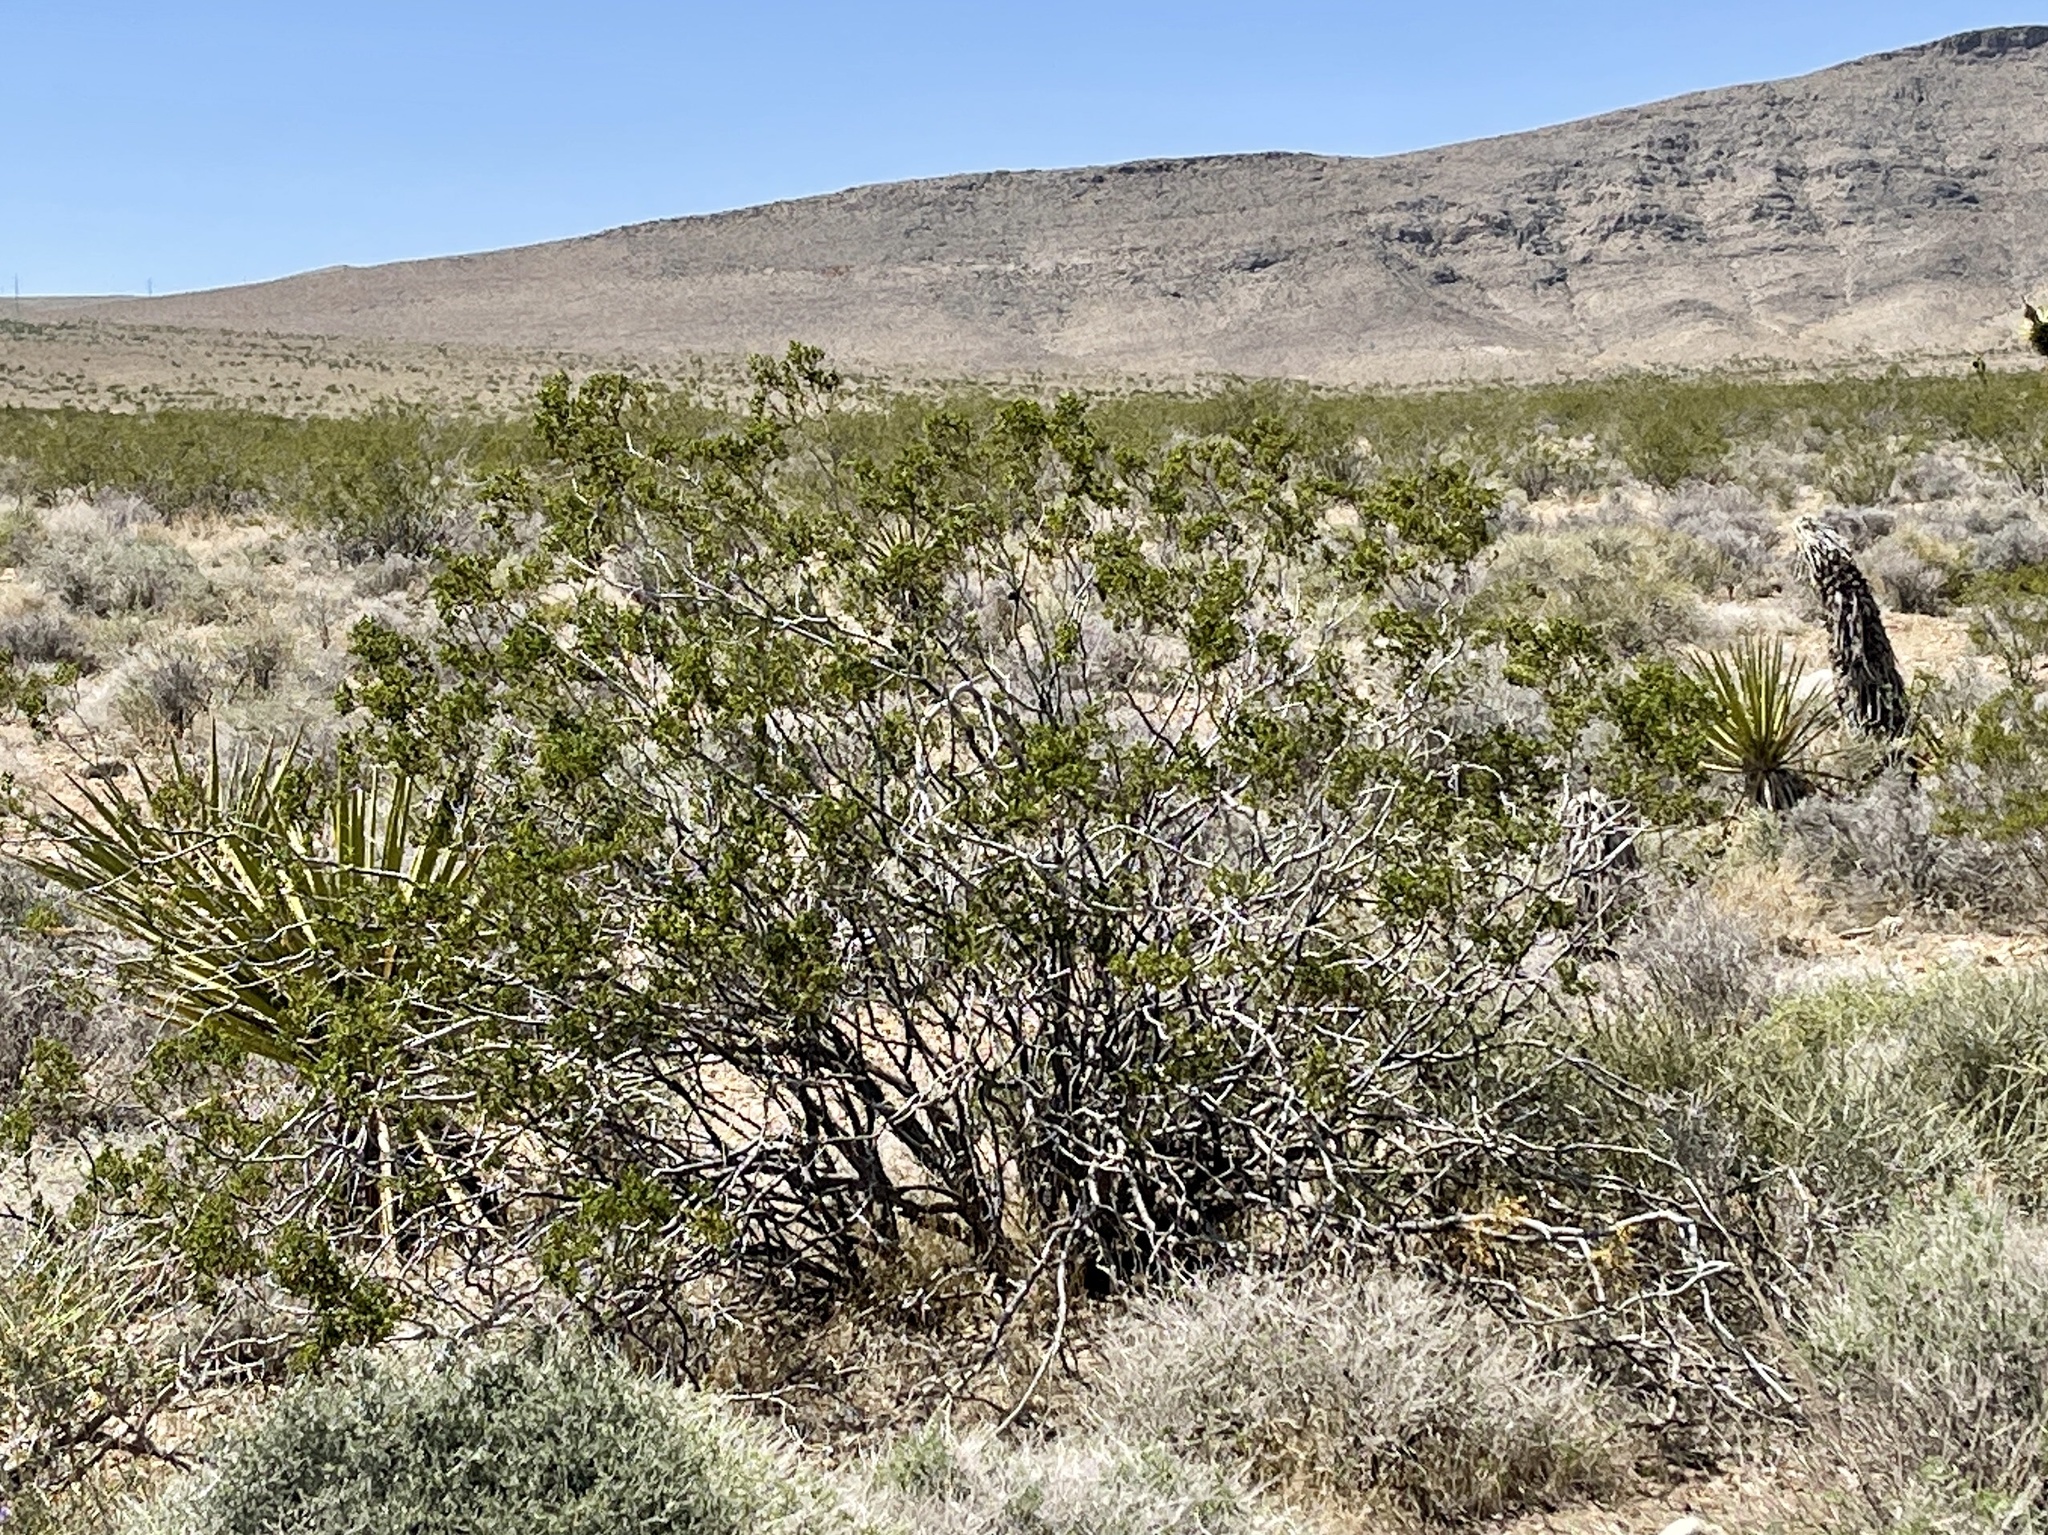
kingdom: Plantae
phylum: Tracheophyta
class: Magnoliopsida
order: Zygophyllales
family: Zygophyllaceae
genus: Larrea
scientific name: Larrea tridentata
